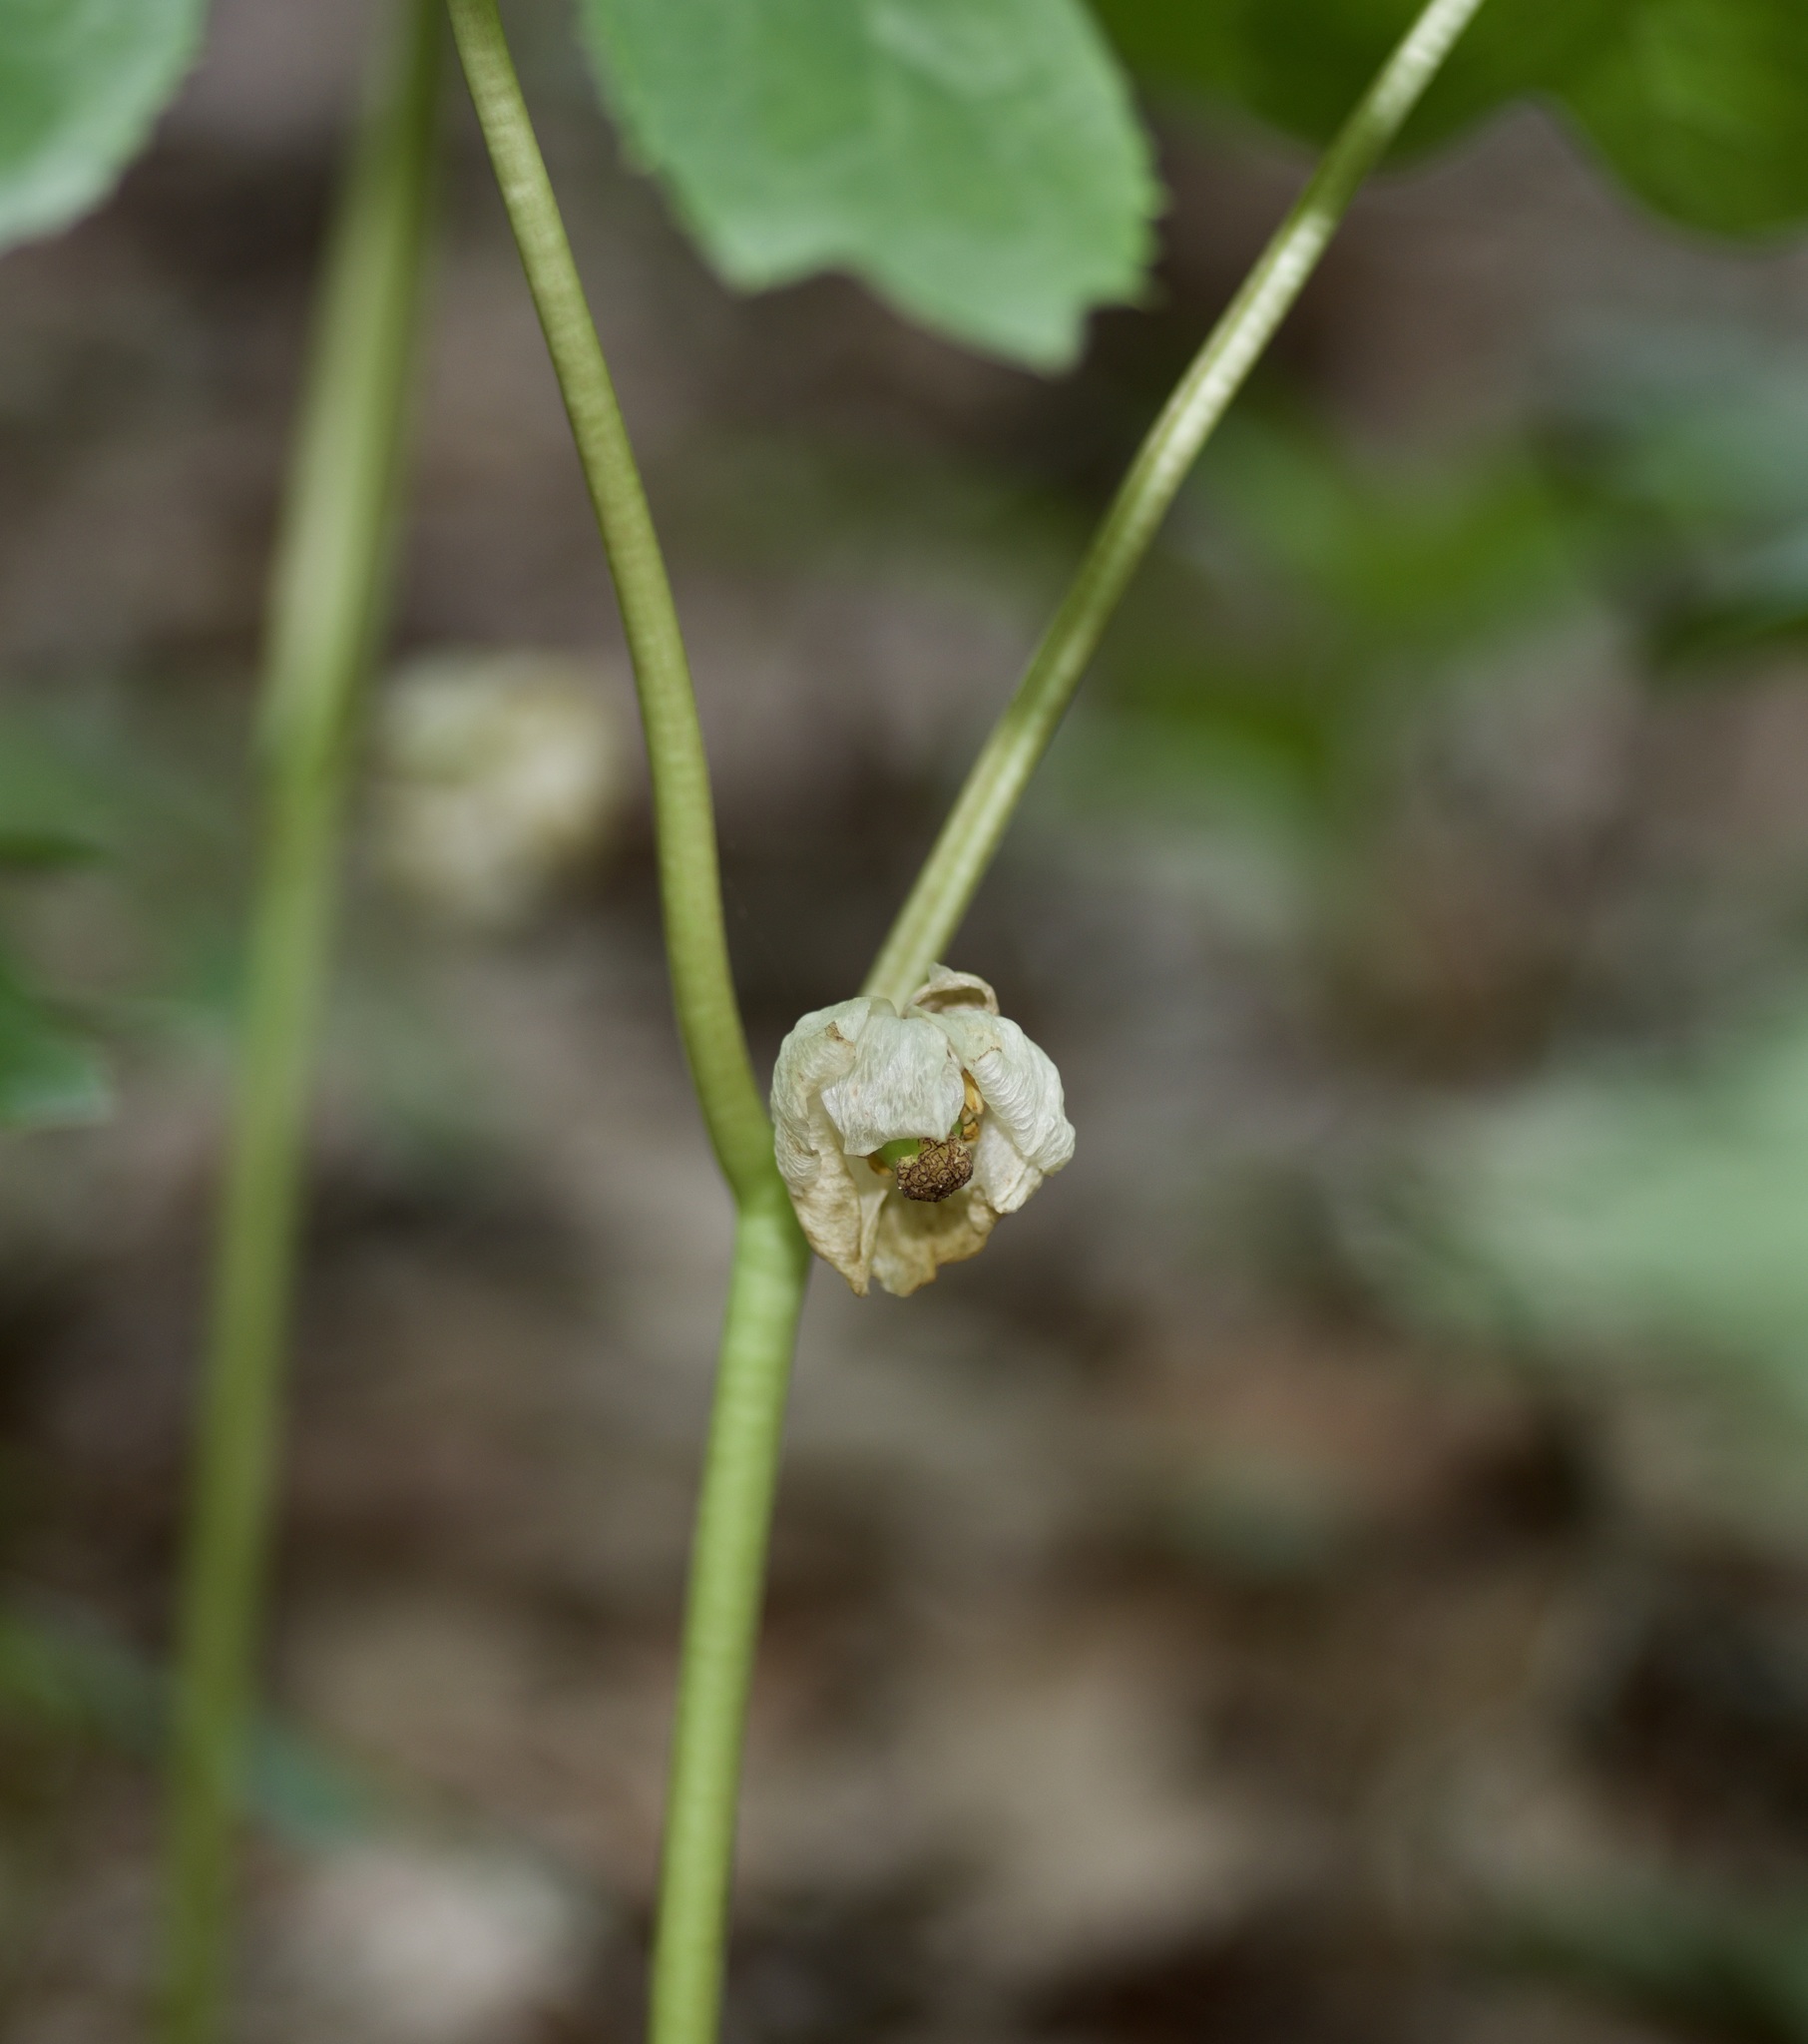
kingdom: Plantae
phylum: Tracheophyta
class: Magnoliopsida
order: Ranunculales
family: Berberidaceae
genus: Podophyllum
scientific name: Podophyllum peltatum
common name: Wild mandrake
